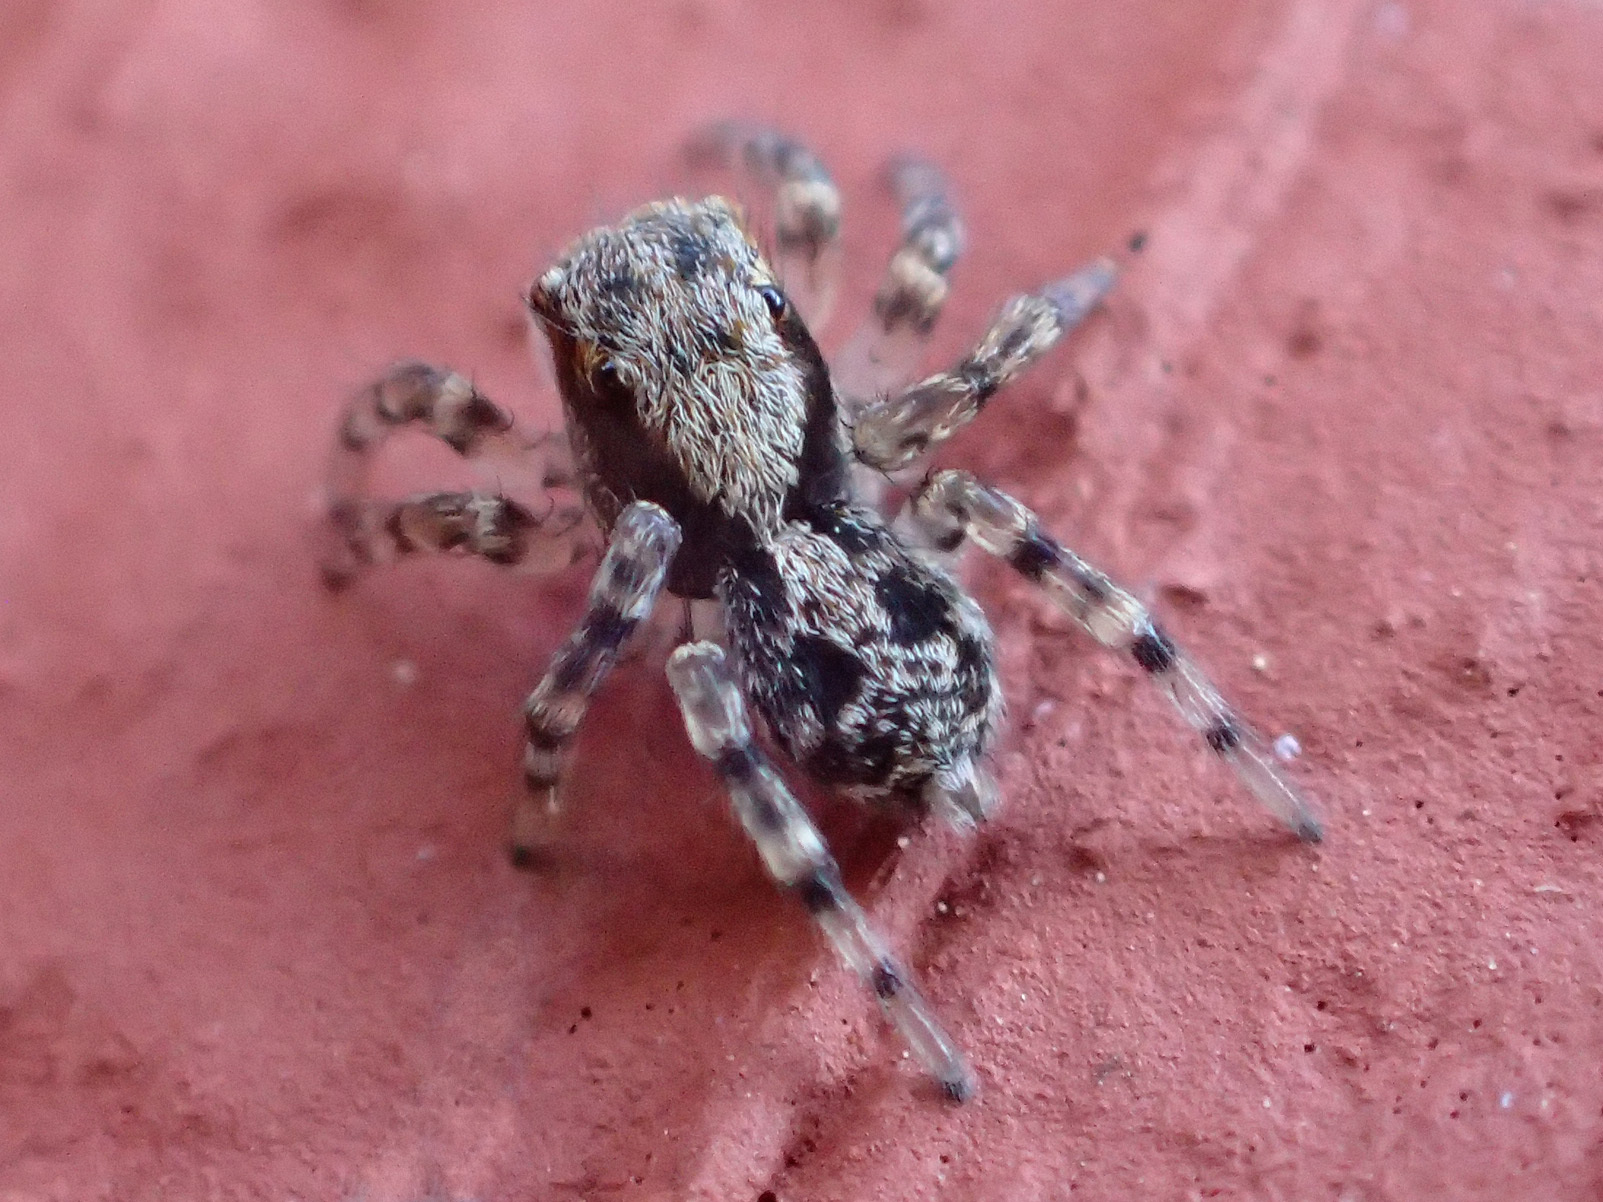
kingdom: Animalia
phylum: Arthropoda
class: Arachnida
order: Araneae
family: Salticidae
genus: Naphrys
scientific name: Naphrys pulex
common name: Flea jumping spider
